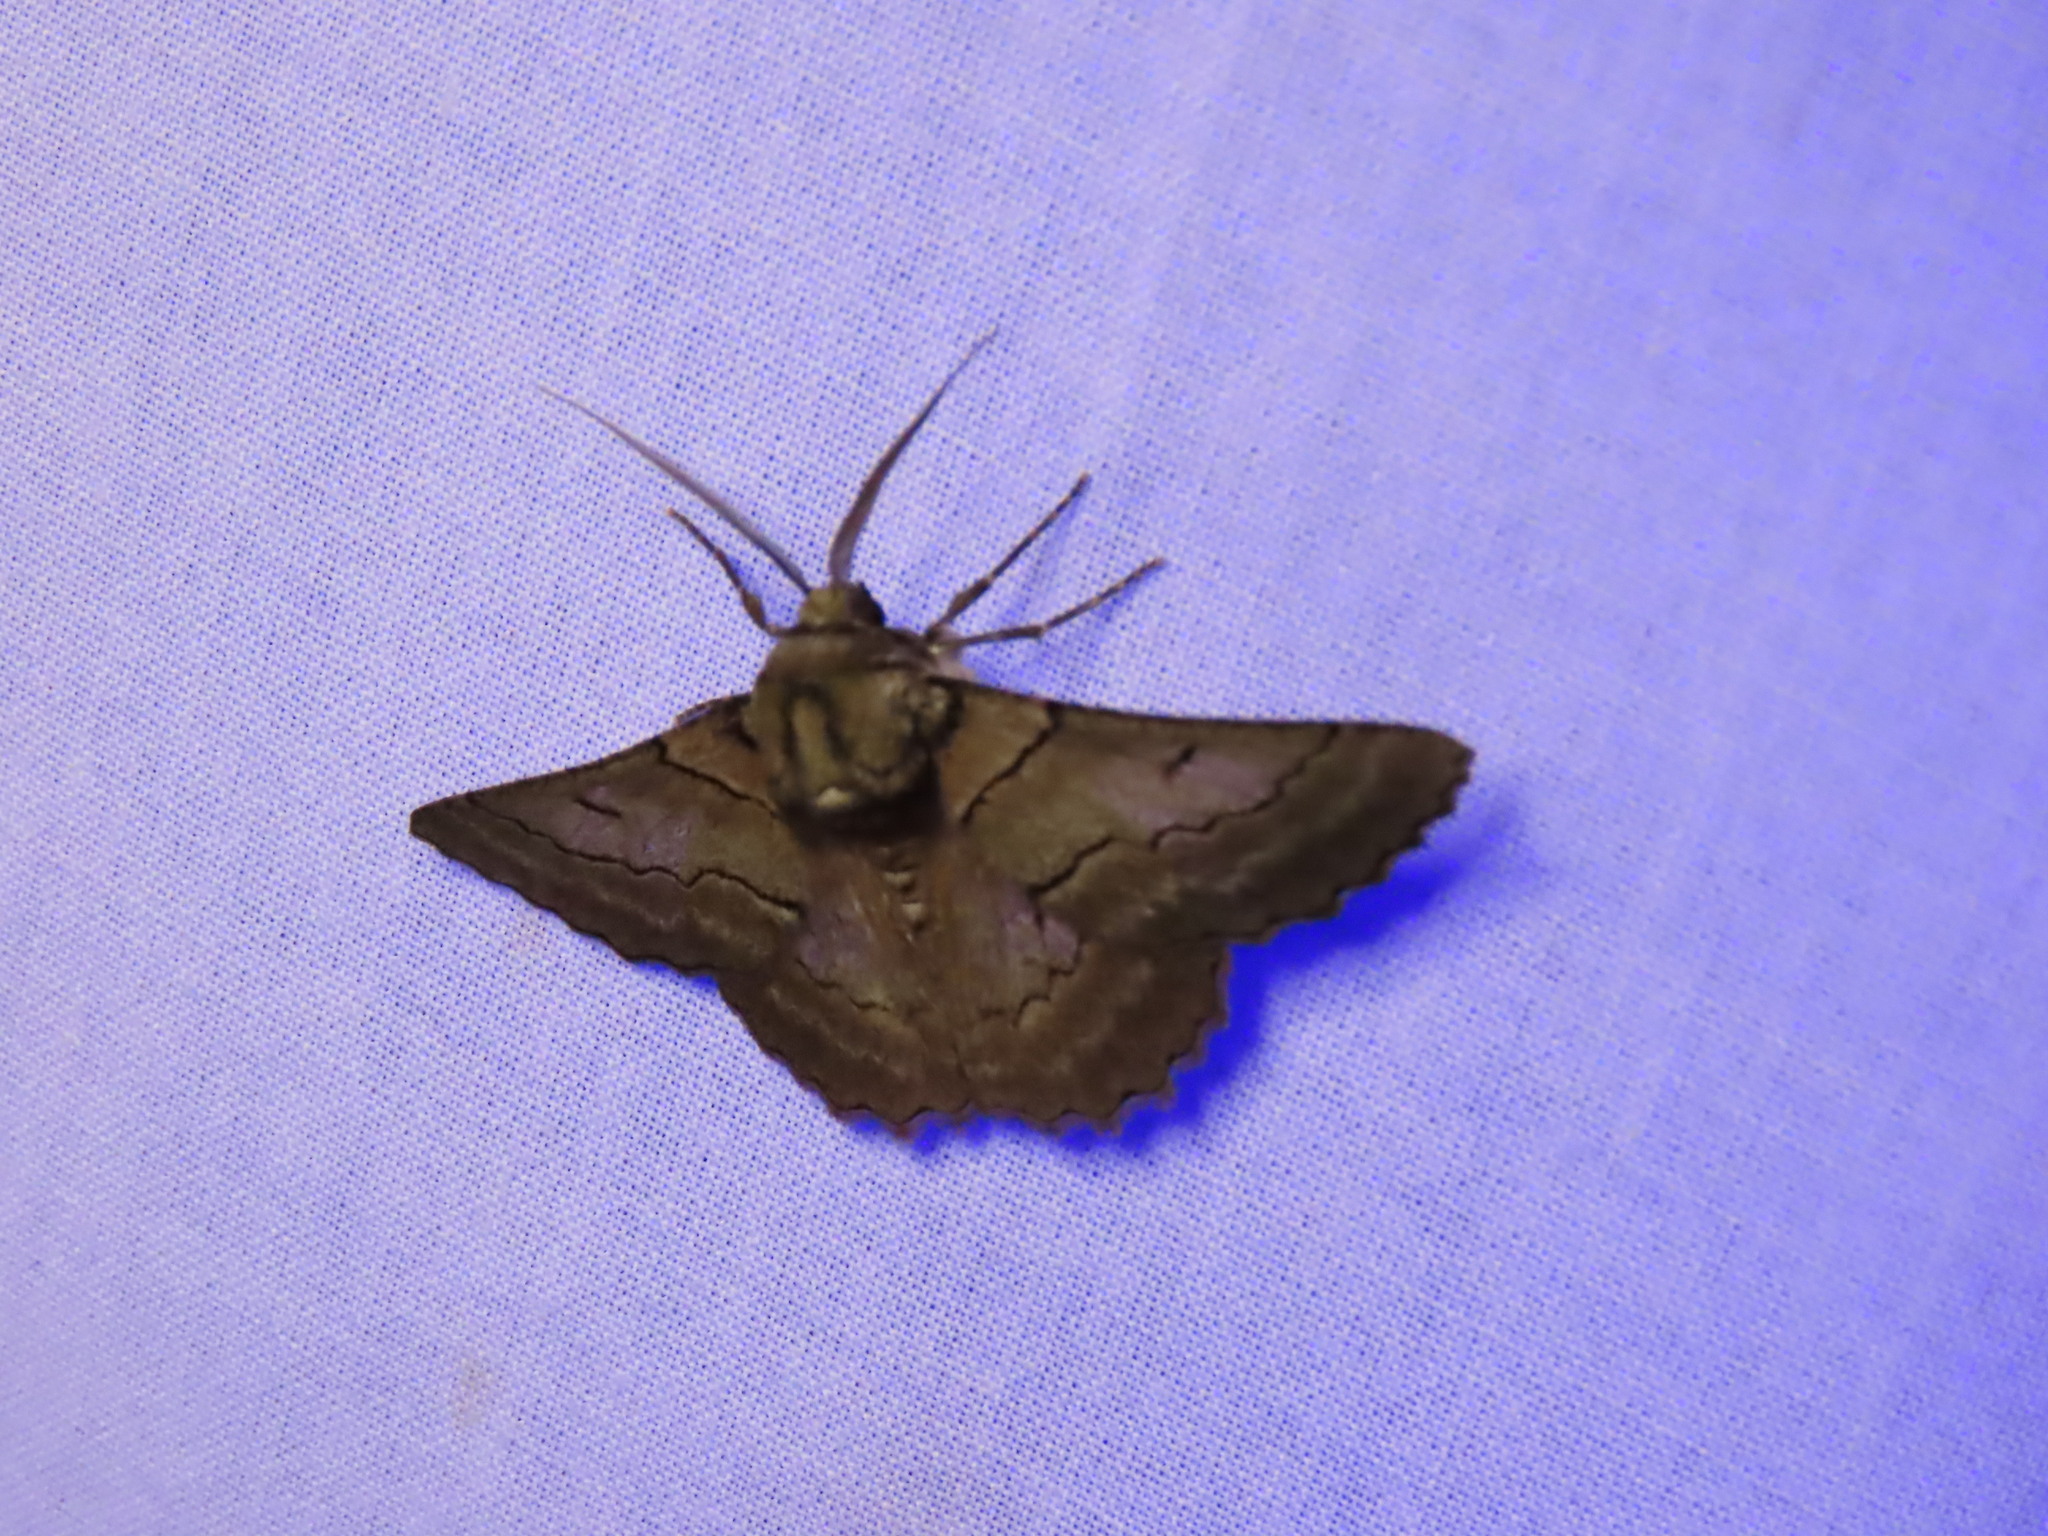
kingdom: Animalia
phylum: Arthropoda
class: Insecta
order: Lepidoptera
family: Geometridae
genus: Hypobapta
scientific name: Hypobapta tachyhalotaria
